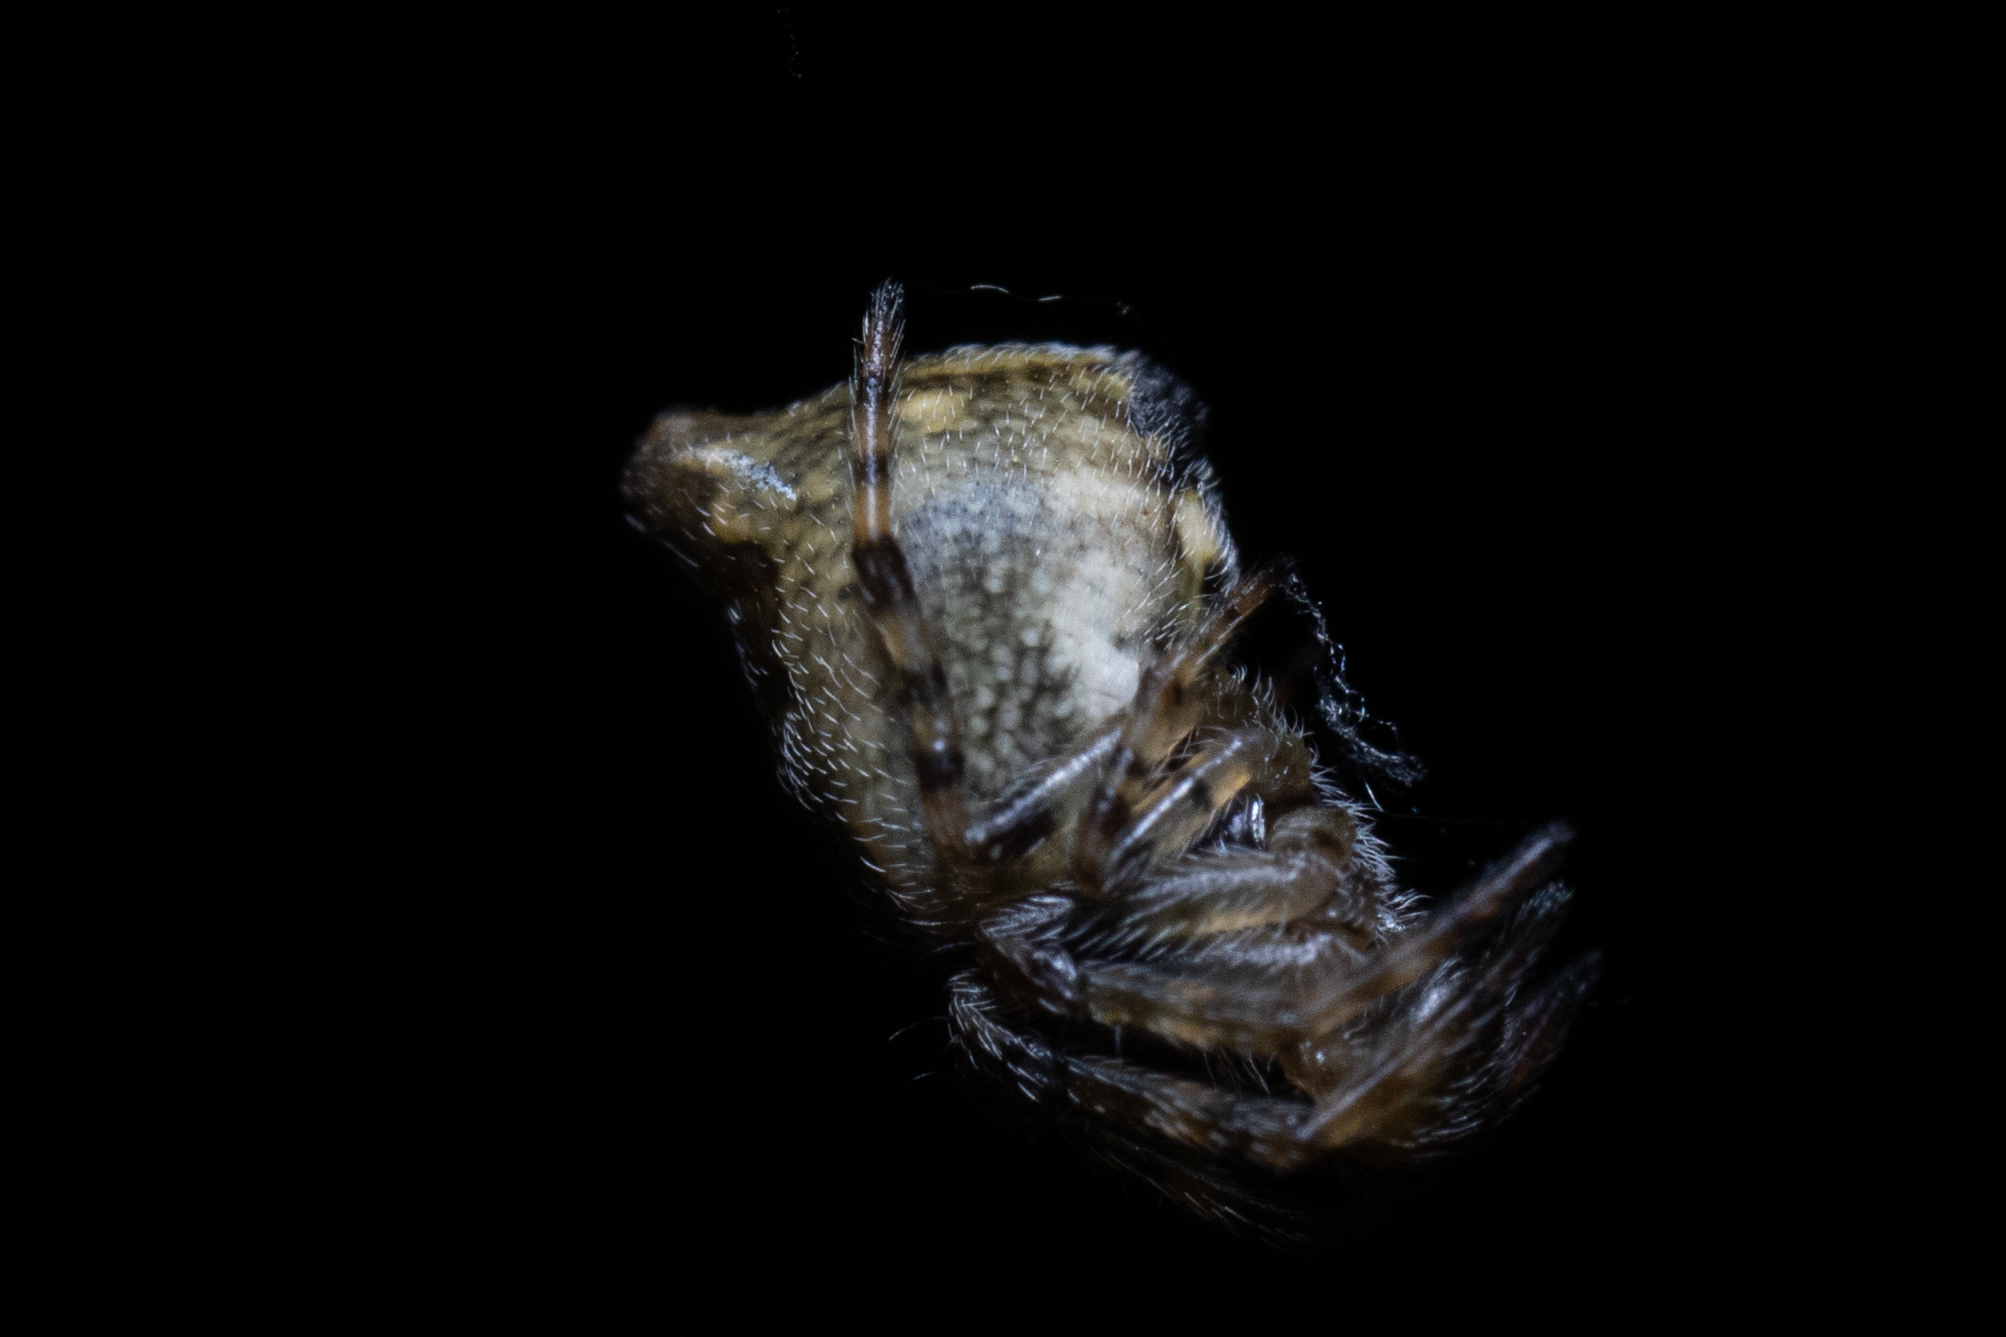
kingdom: Animalia
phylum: Arthropoda
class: Arachnida
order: Araneae
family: Araneidae
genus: Cyclosa
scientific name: Cyclosa conica
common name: Conical trashline orbweaver
